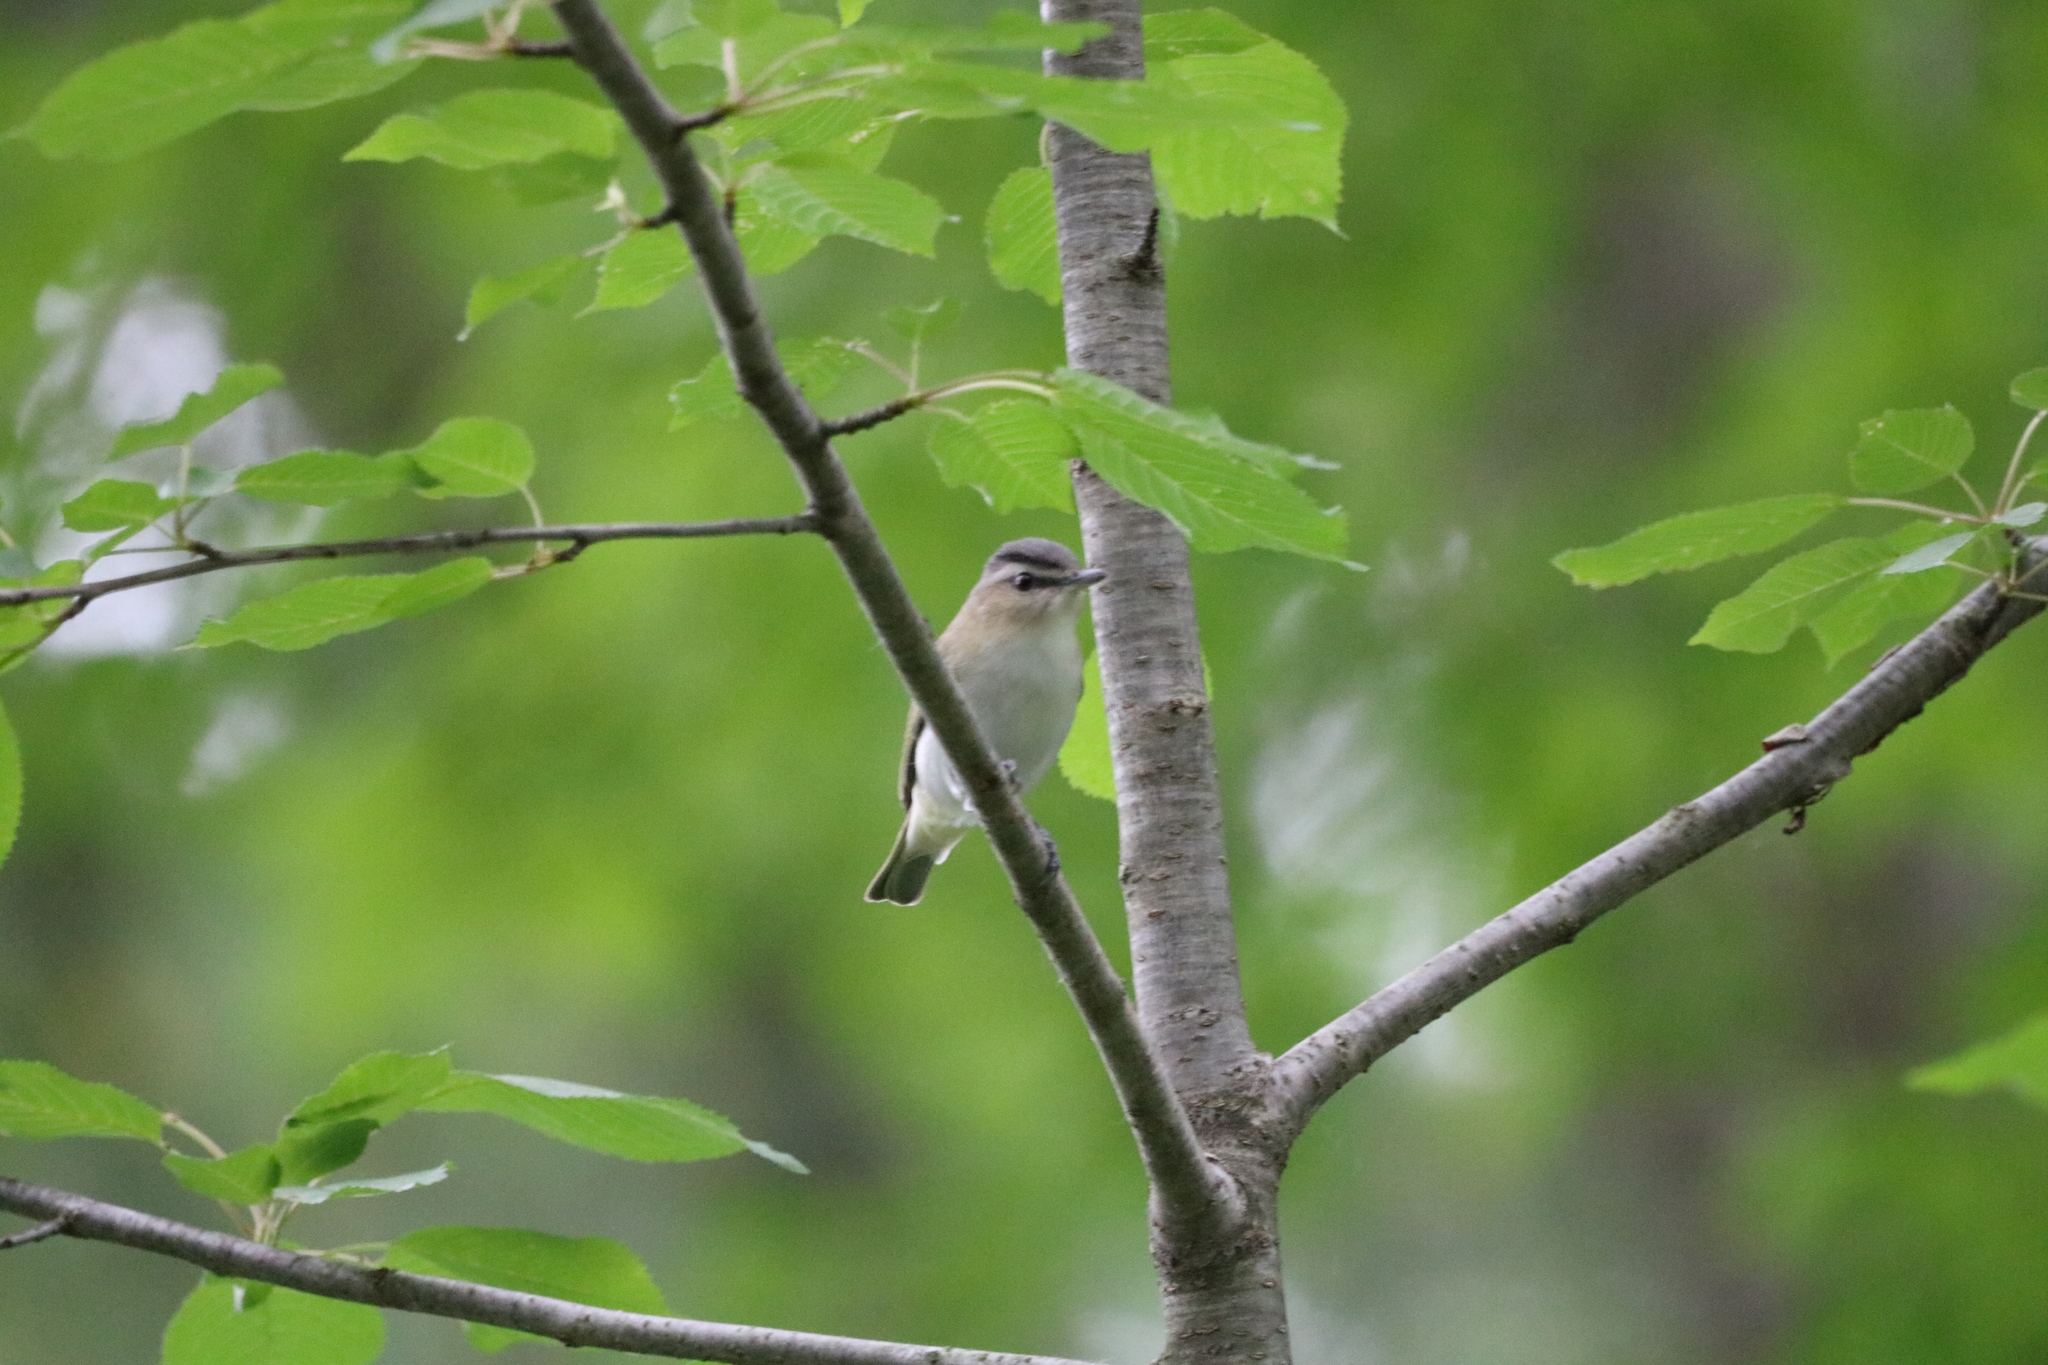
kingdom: Animalia
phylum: Chordata
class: Aves
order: Passeriformes
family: Vireonidae
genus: Vireo
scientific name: Vireo olivaceus
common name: Red-eyed vireo
